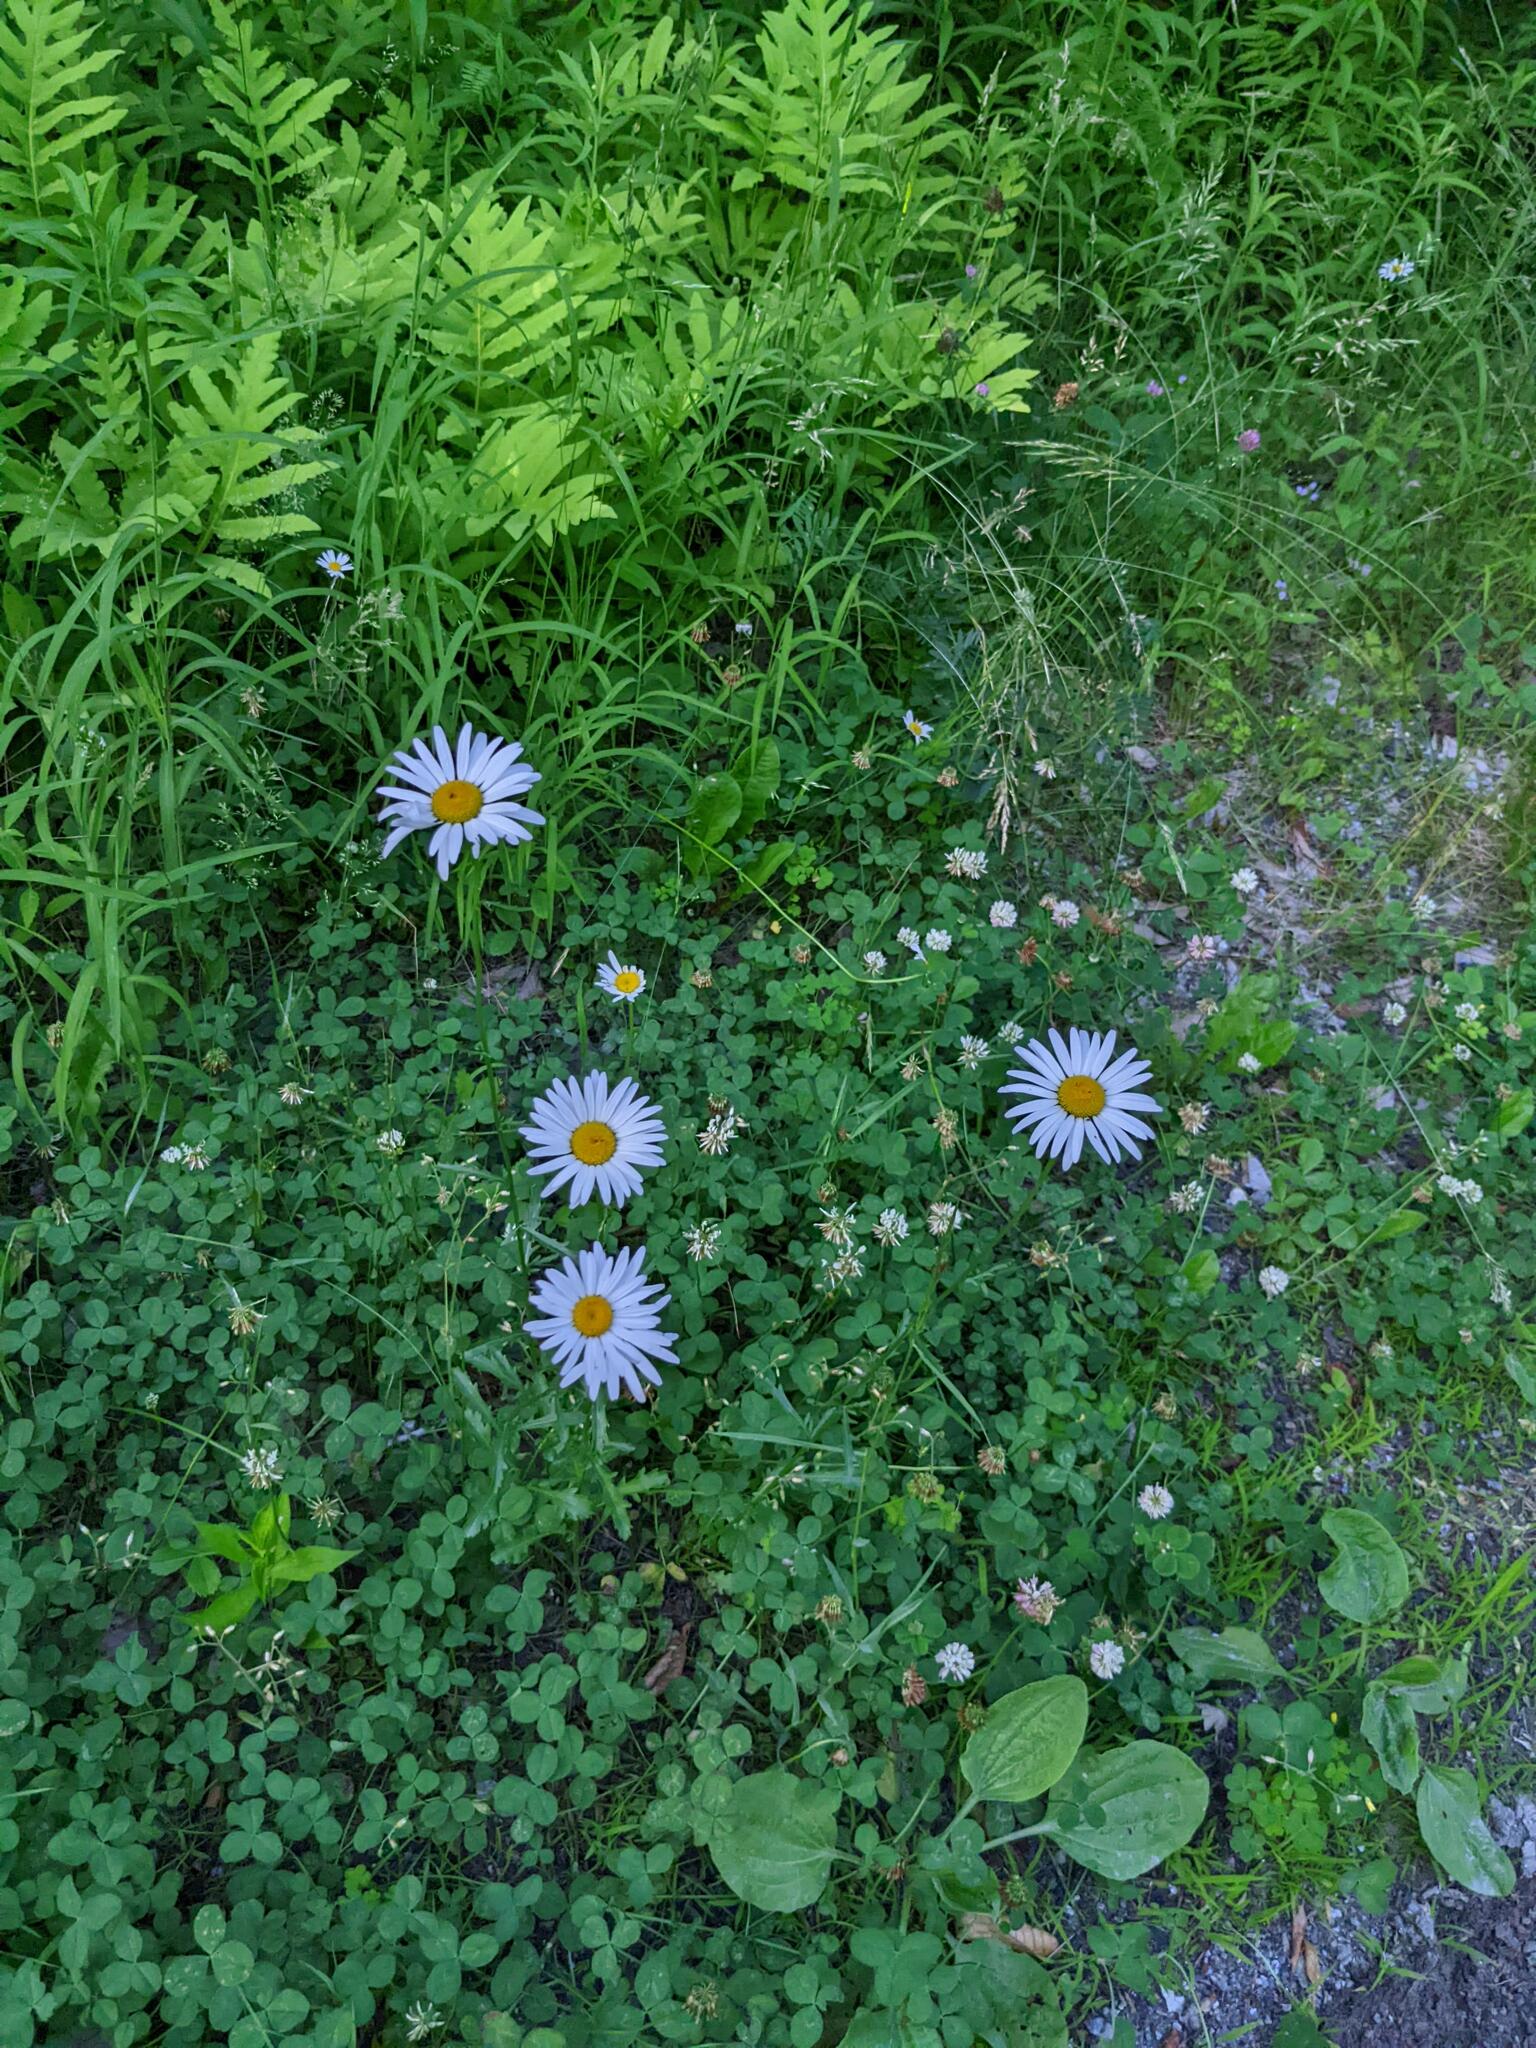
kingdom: Plantae
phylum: Tracheophyta
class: Magnoliopsida
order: Fabales
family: Fabaceae
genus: Trifolium
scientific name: Trifolium repens
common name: White clover
